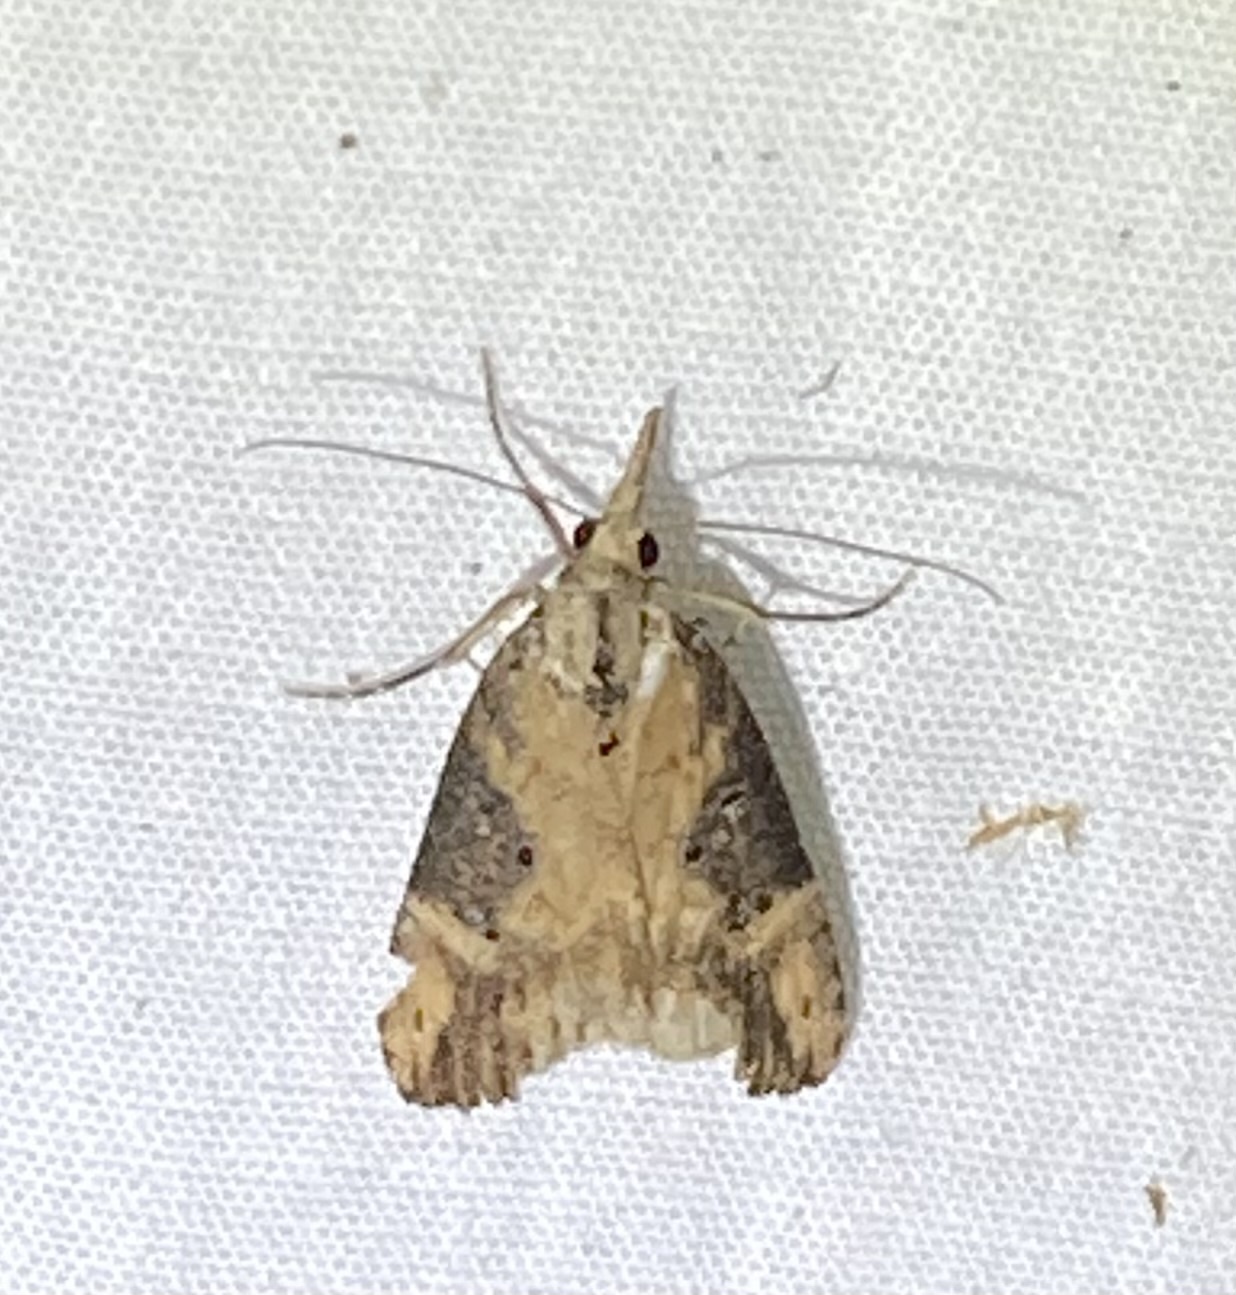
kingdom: Animalia
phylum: Arthropoda
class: Insecta
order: Lepidoptera
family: Erebidae
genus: Hypena
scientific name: Hypena humuli
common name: Hop vine snout
